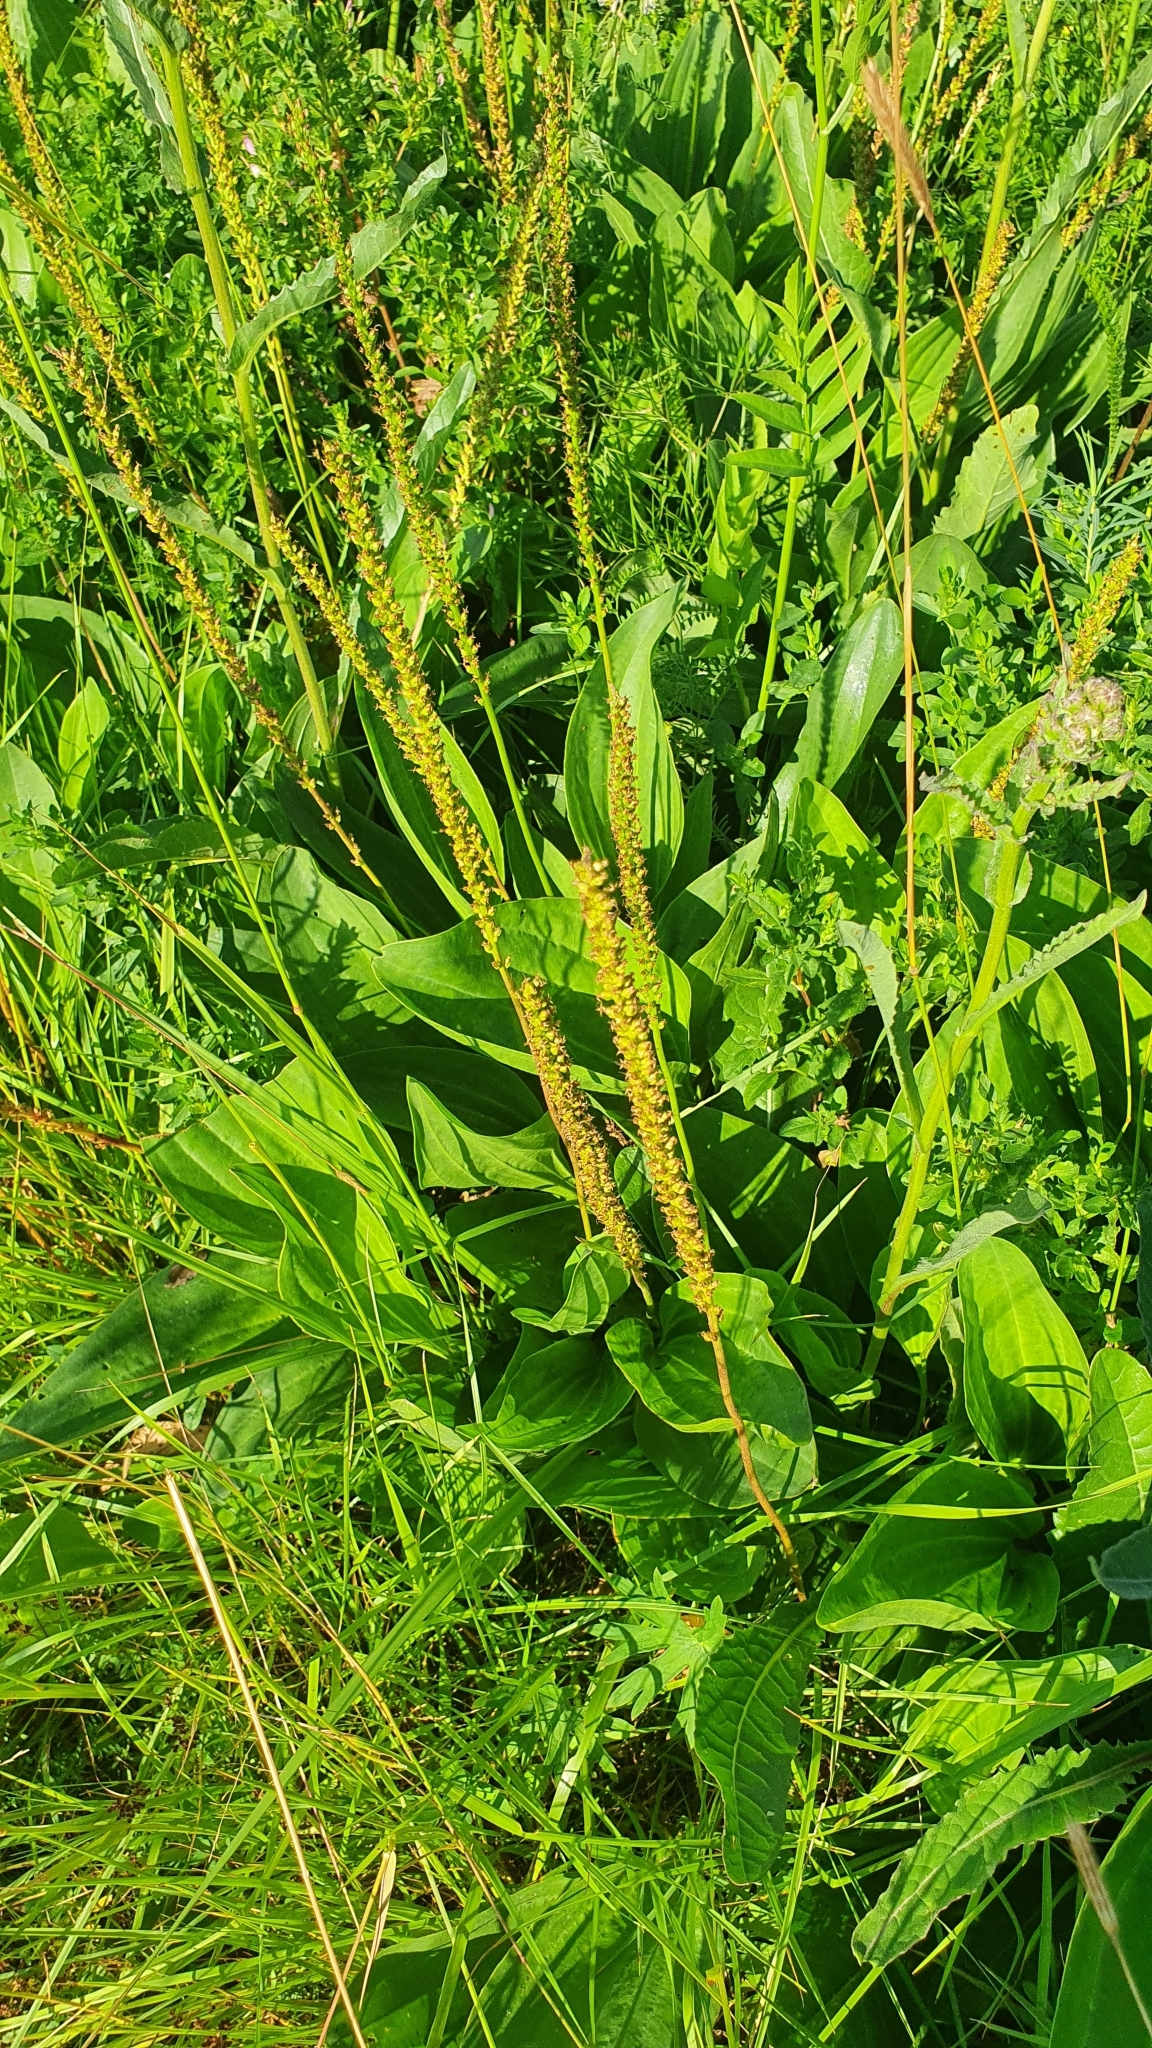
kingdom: Plantae
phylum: Tracheophyta
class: Magnoliopsida
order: Lamiales
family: Plantaginaceae
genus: Plantago
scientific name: Plantago cornuti
